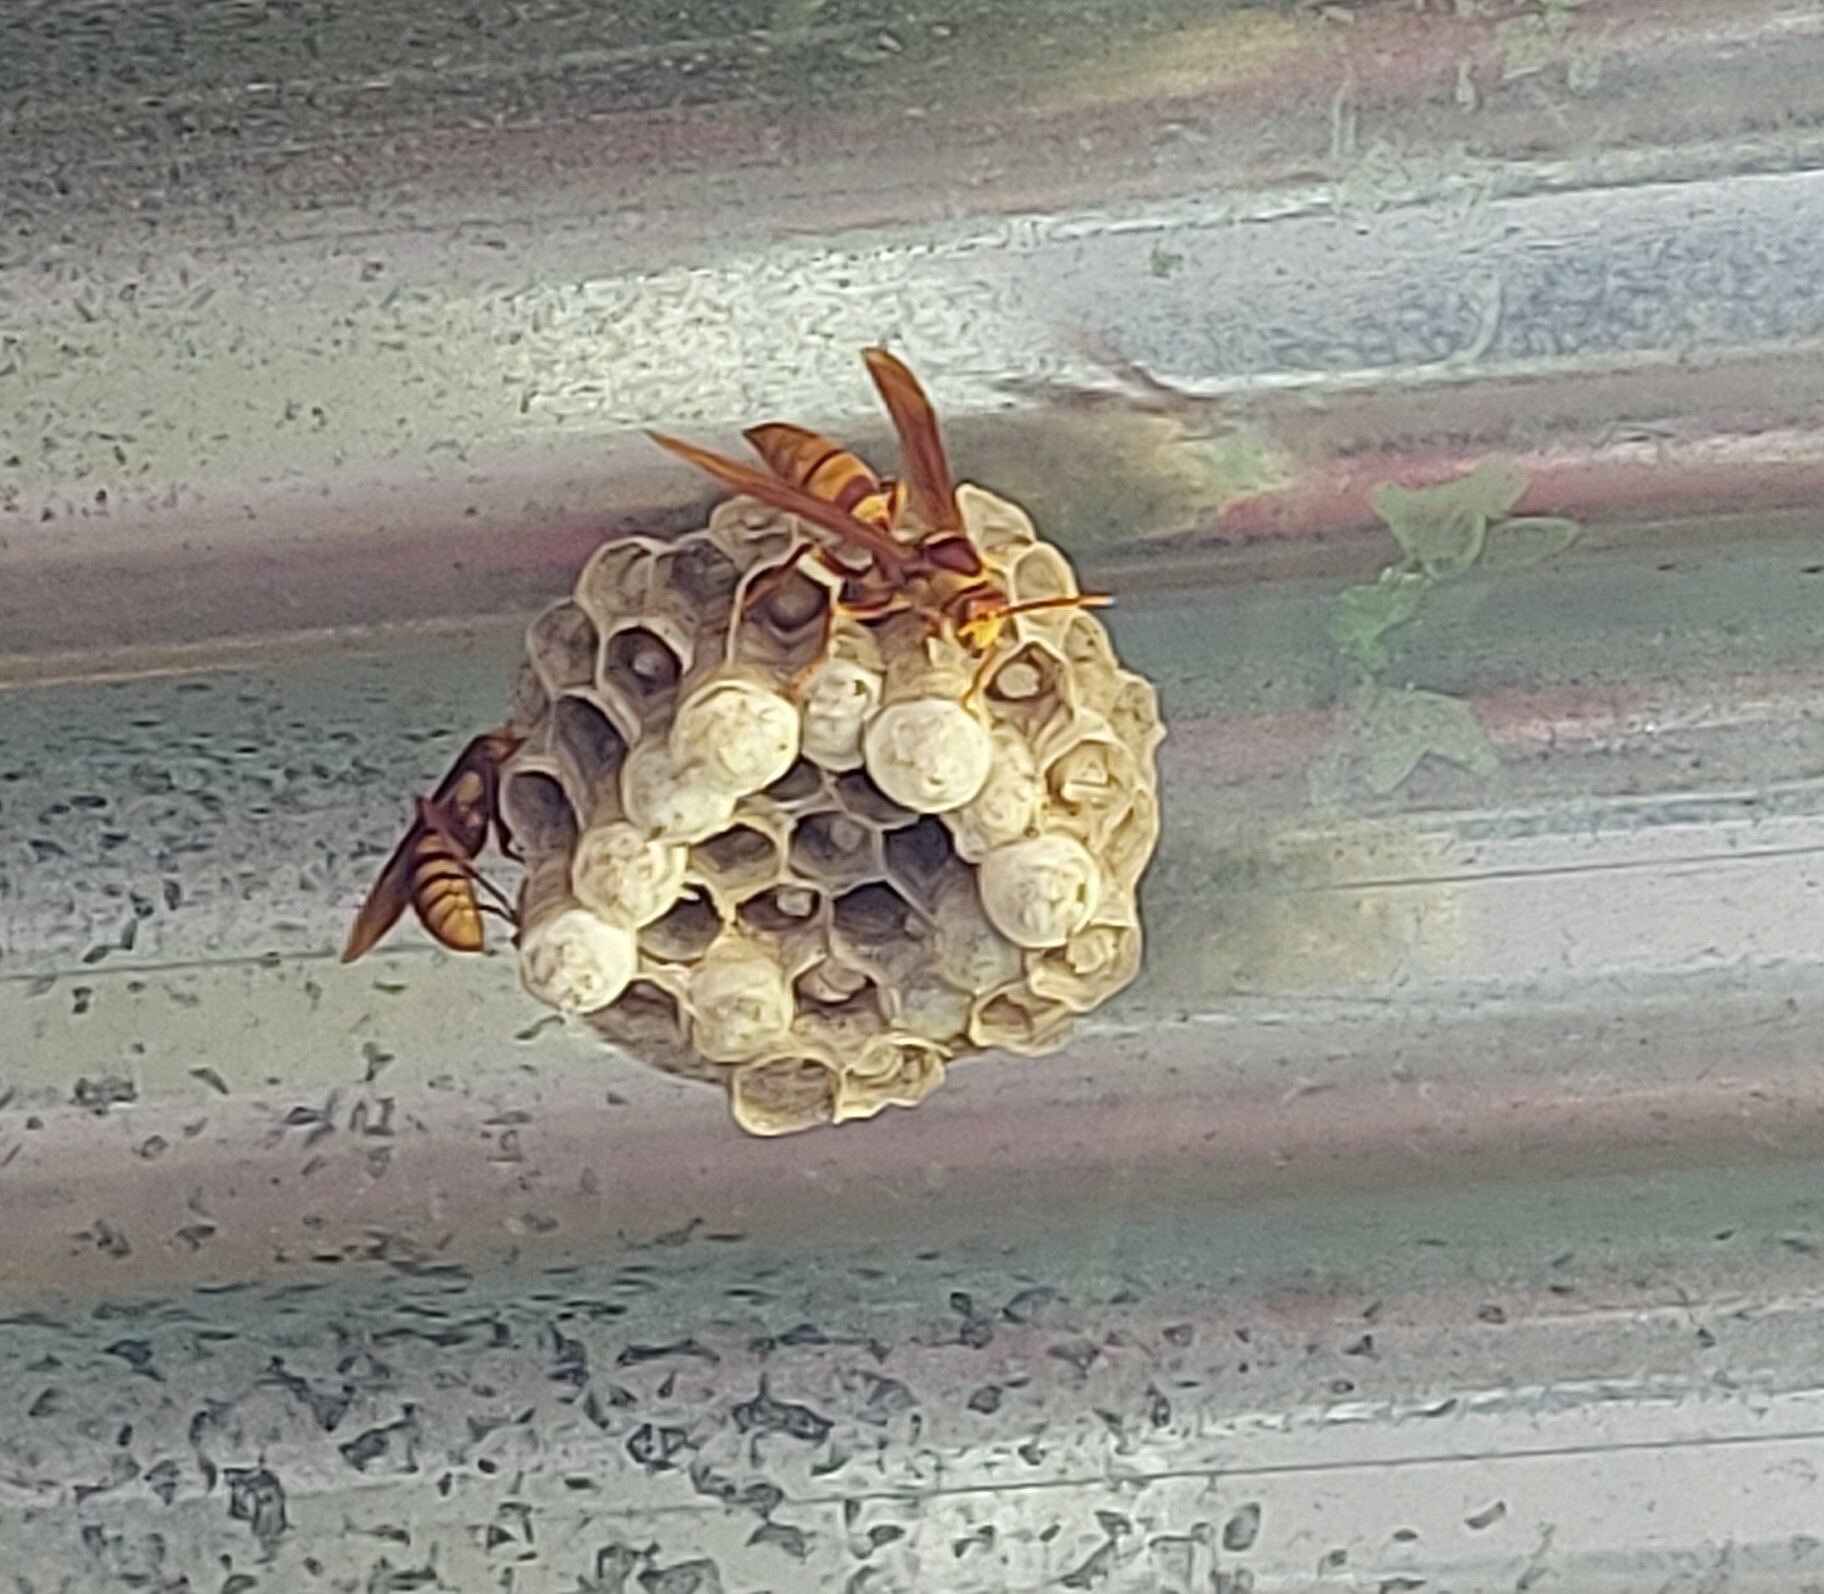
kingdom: Animalia
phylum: Arthropoda
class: Insecta
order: Hymenoptera
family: Eumenidae
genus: Polistes
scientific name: Polistes carnifex
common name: Paper wasp
